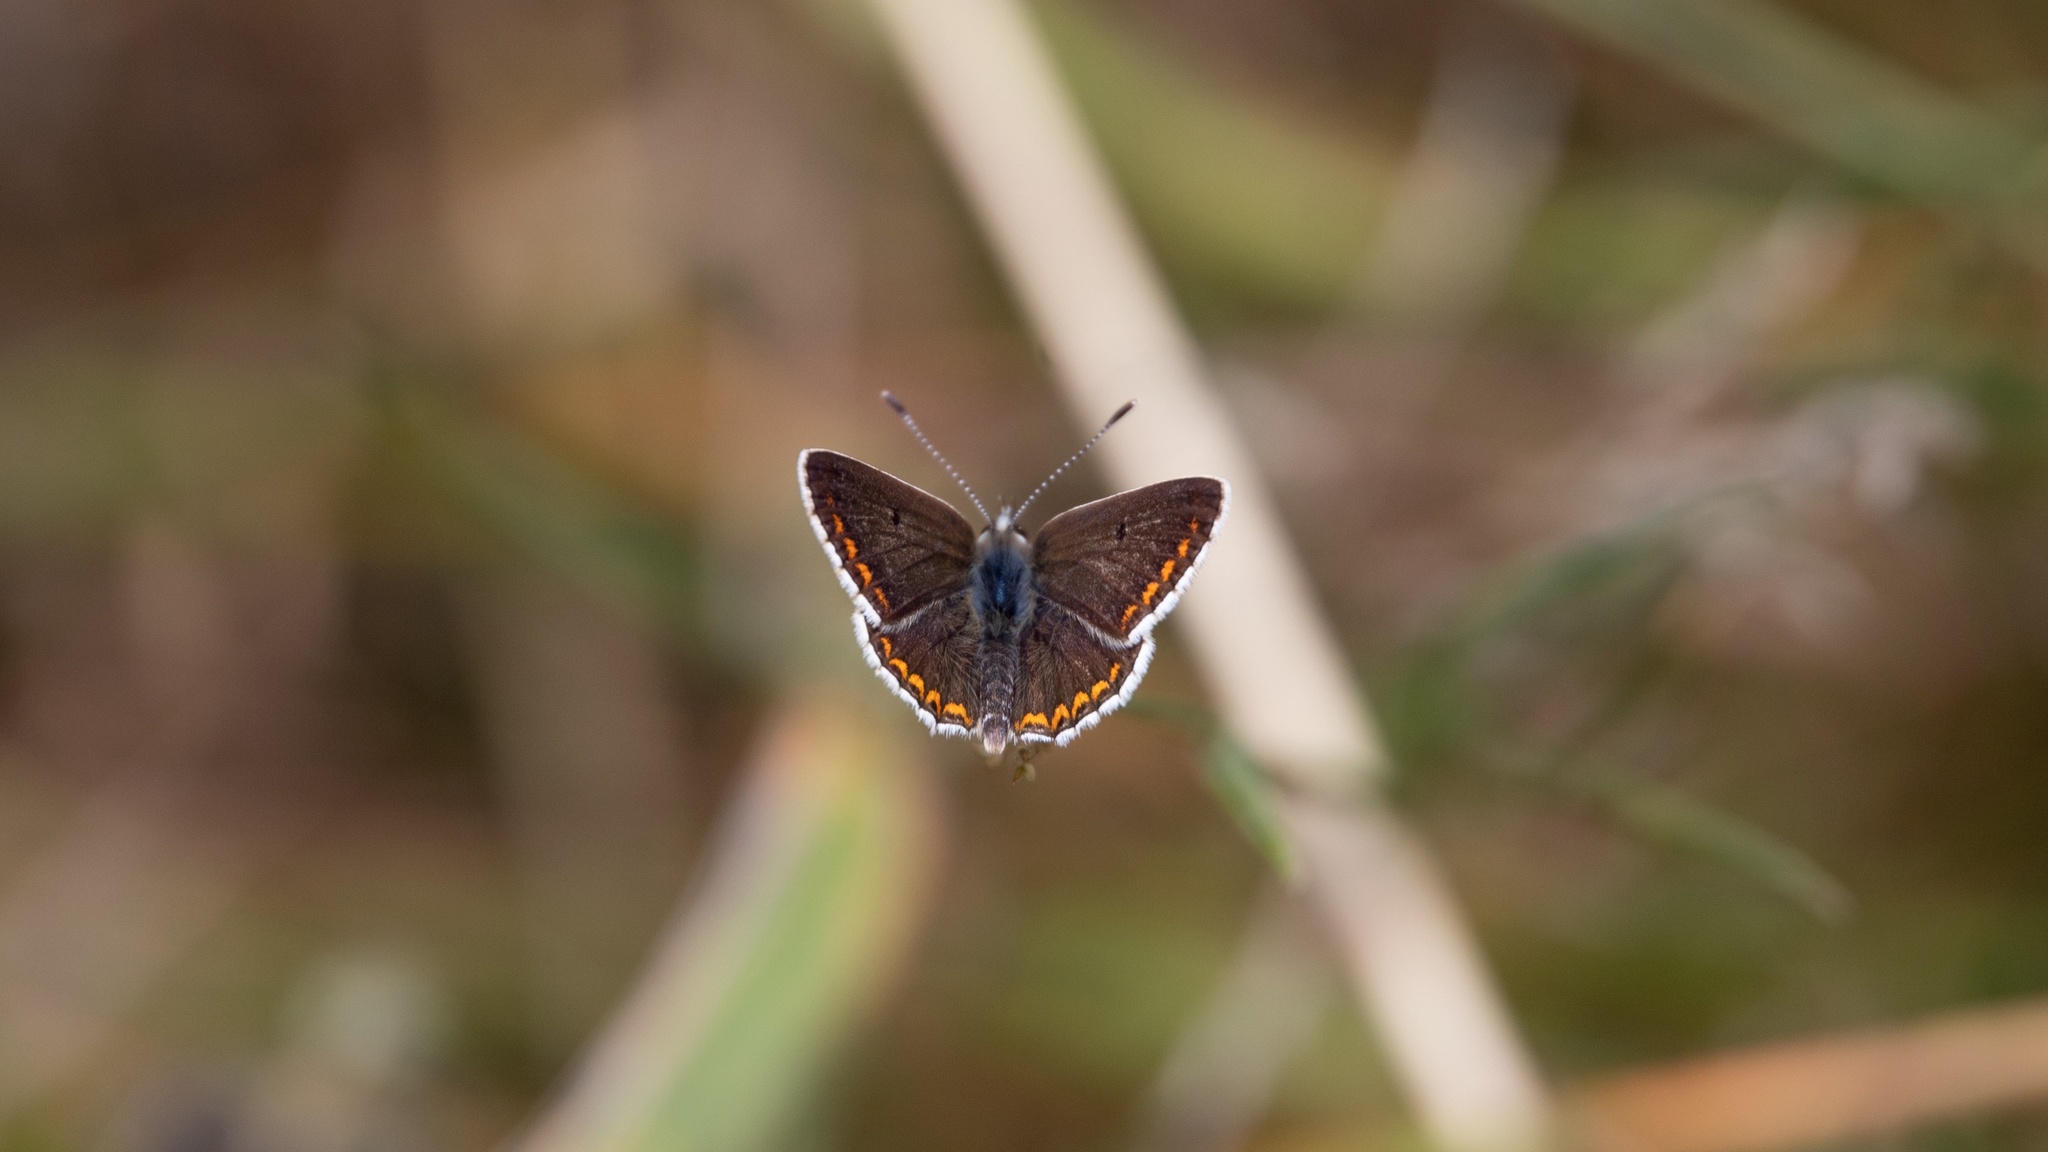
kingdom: Animalia
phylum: Arthropoda
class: Insecta
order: Lepidoptera
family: Lycaenidae
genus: Aricia
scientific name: Aricia agestis
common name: Brown argus
